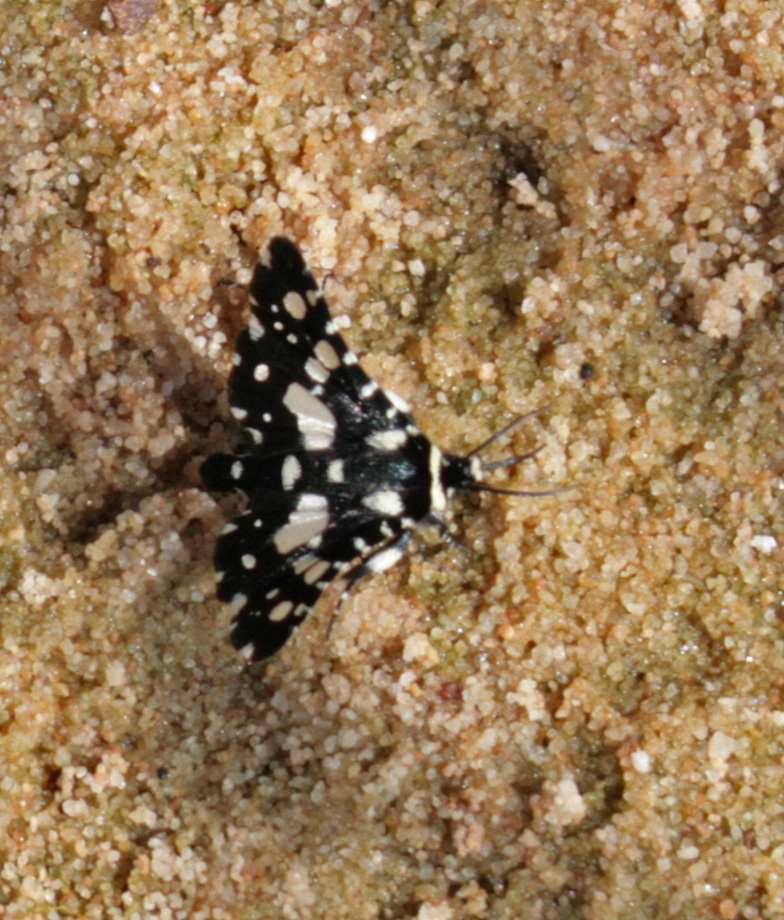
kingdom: Animalia
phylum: Arthropoda
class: Insecta
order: Lepidoptera
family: Thyrididae
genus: Pseudothyris
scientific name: Pseudothyris sepulchralis
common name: Mournful thyris moth
